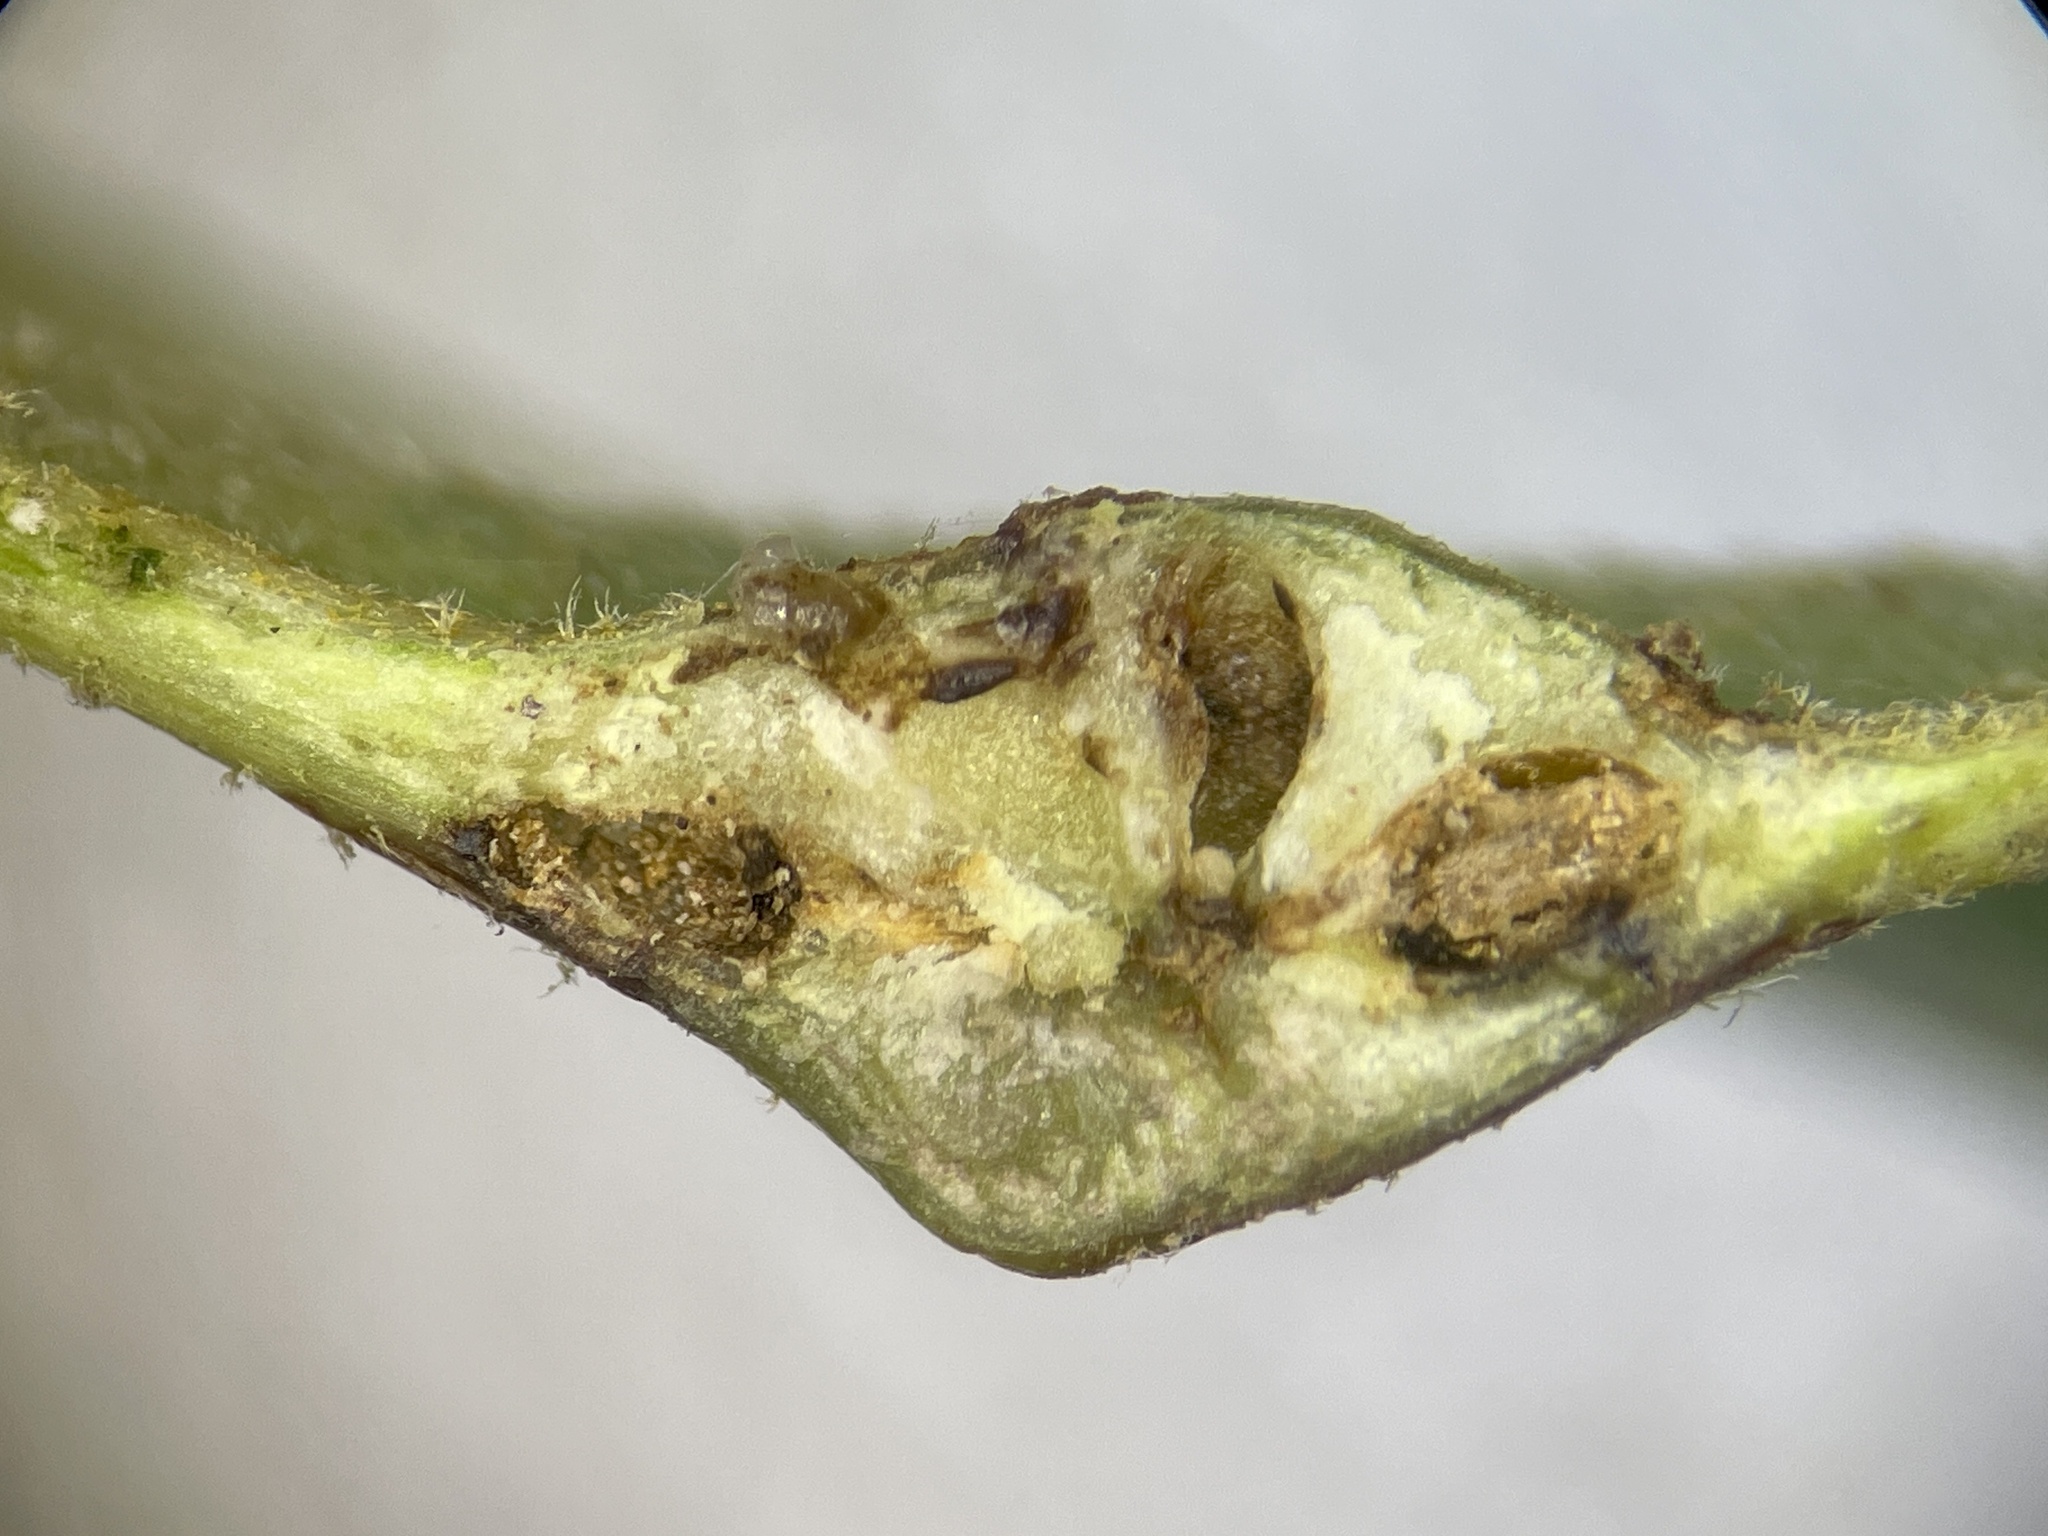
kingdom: Animalia
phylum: Arthropoda
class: Insecta
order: Hymenoptera
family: Cynipidae
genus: Andricus
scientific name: Andricus
